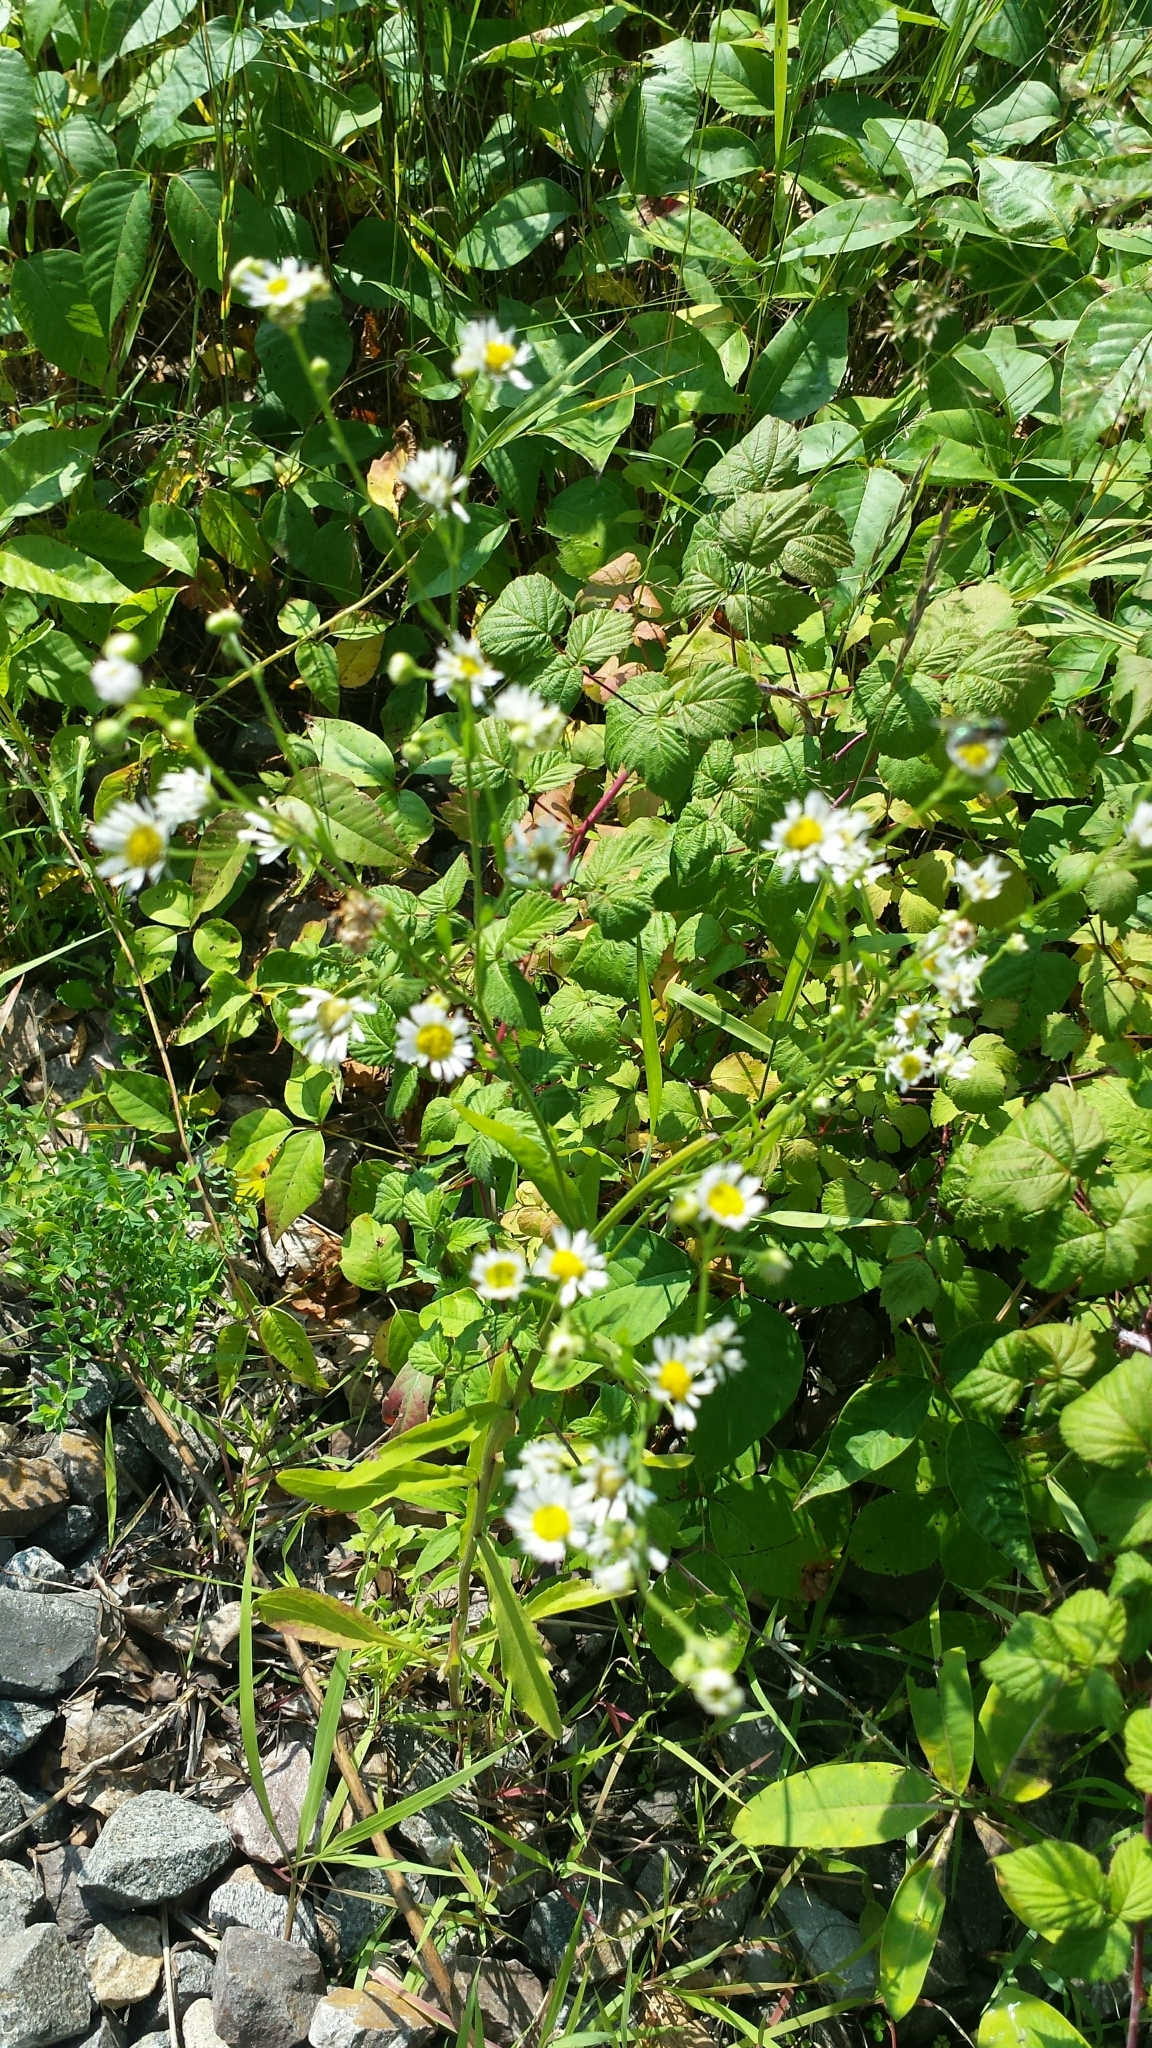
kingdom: Plantae
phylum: Tracheophyta
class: Magnoliopsida
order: Asterales
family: Asteraceae
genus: Erigeron
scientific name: Erigeron annuus
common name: Tall fleabane
